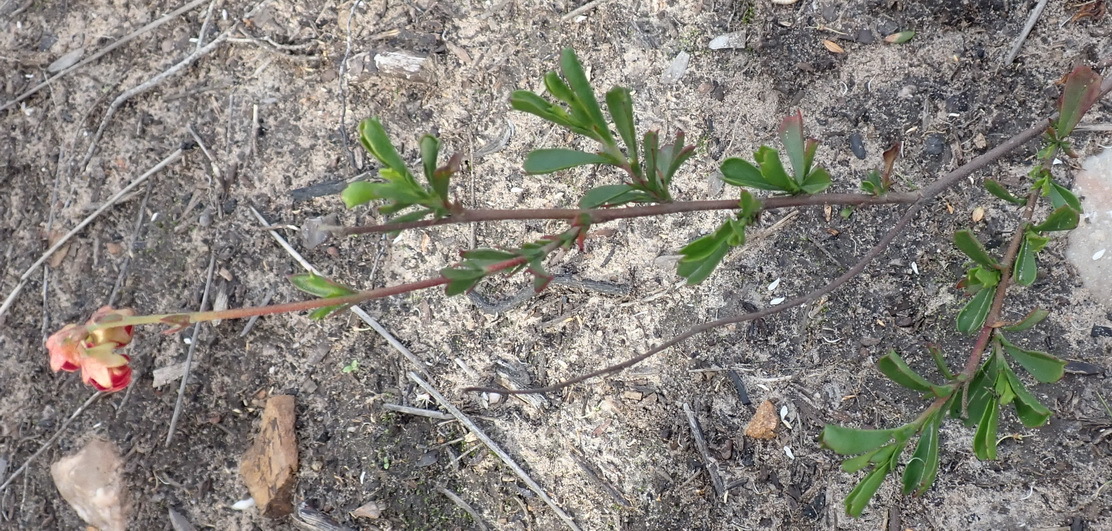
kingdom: Plantae
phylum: Tracheophyta
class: Magnoliopsida
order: Malvales
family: Malvaceae
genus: Hermannia
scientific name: Hermannia flammea
